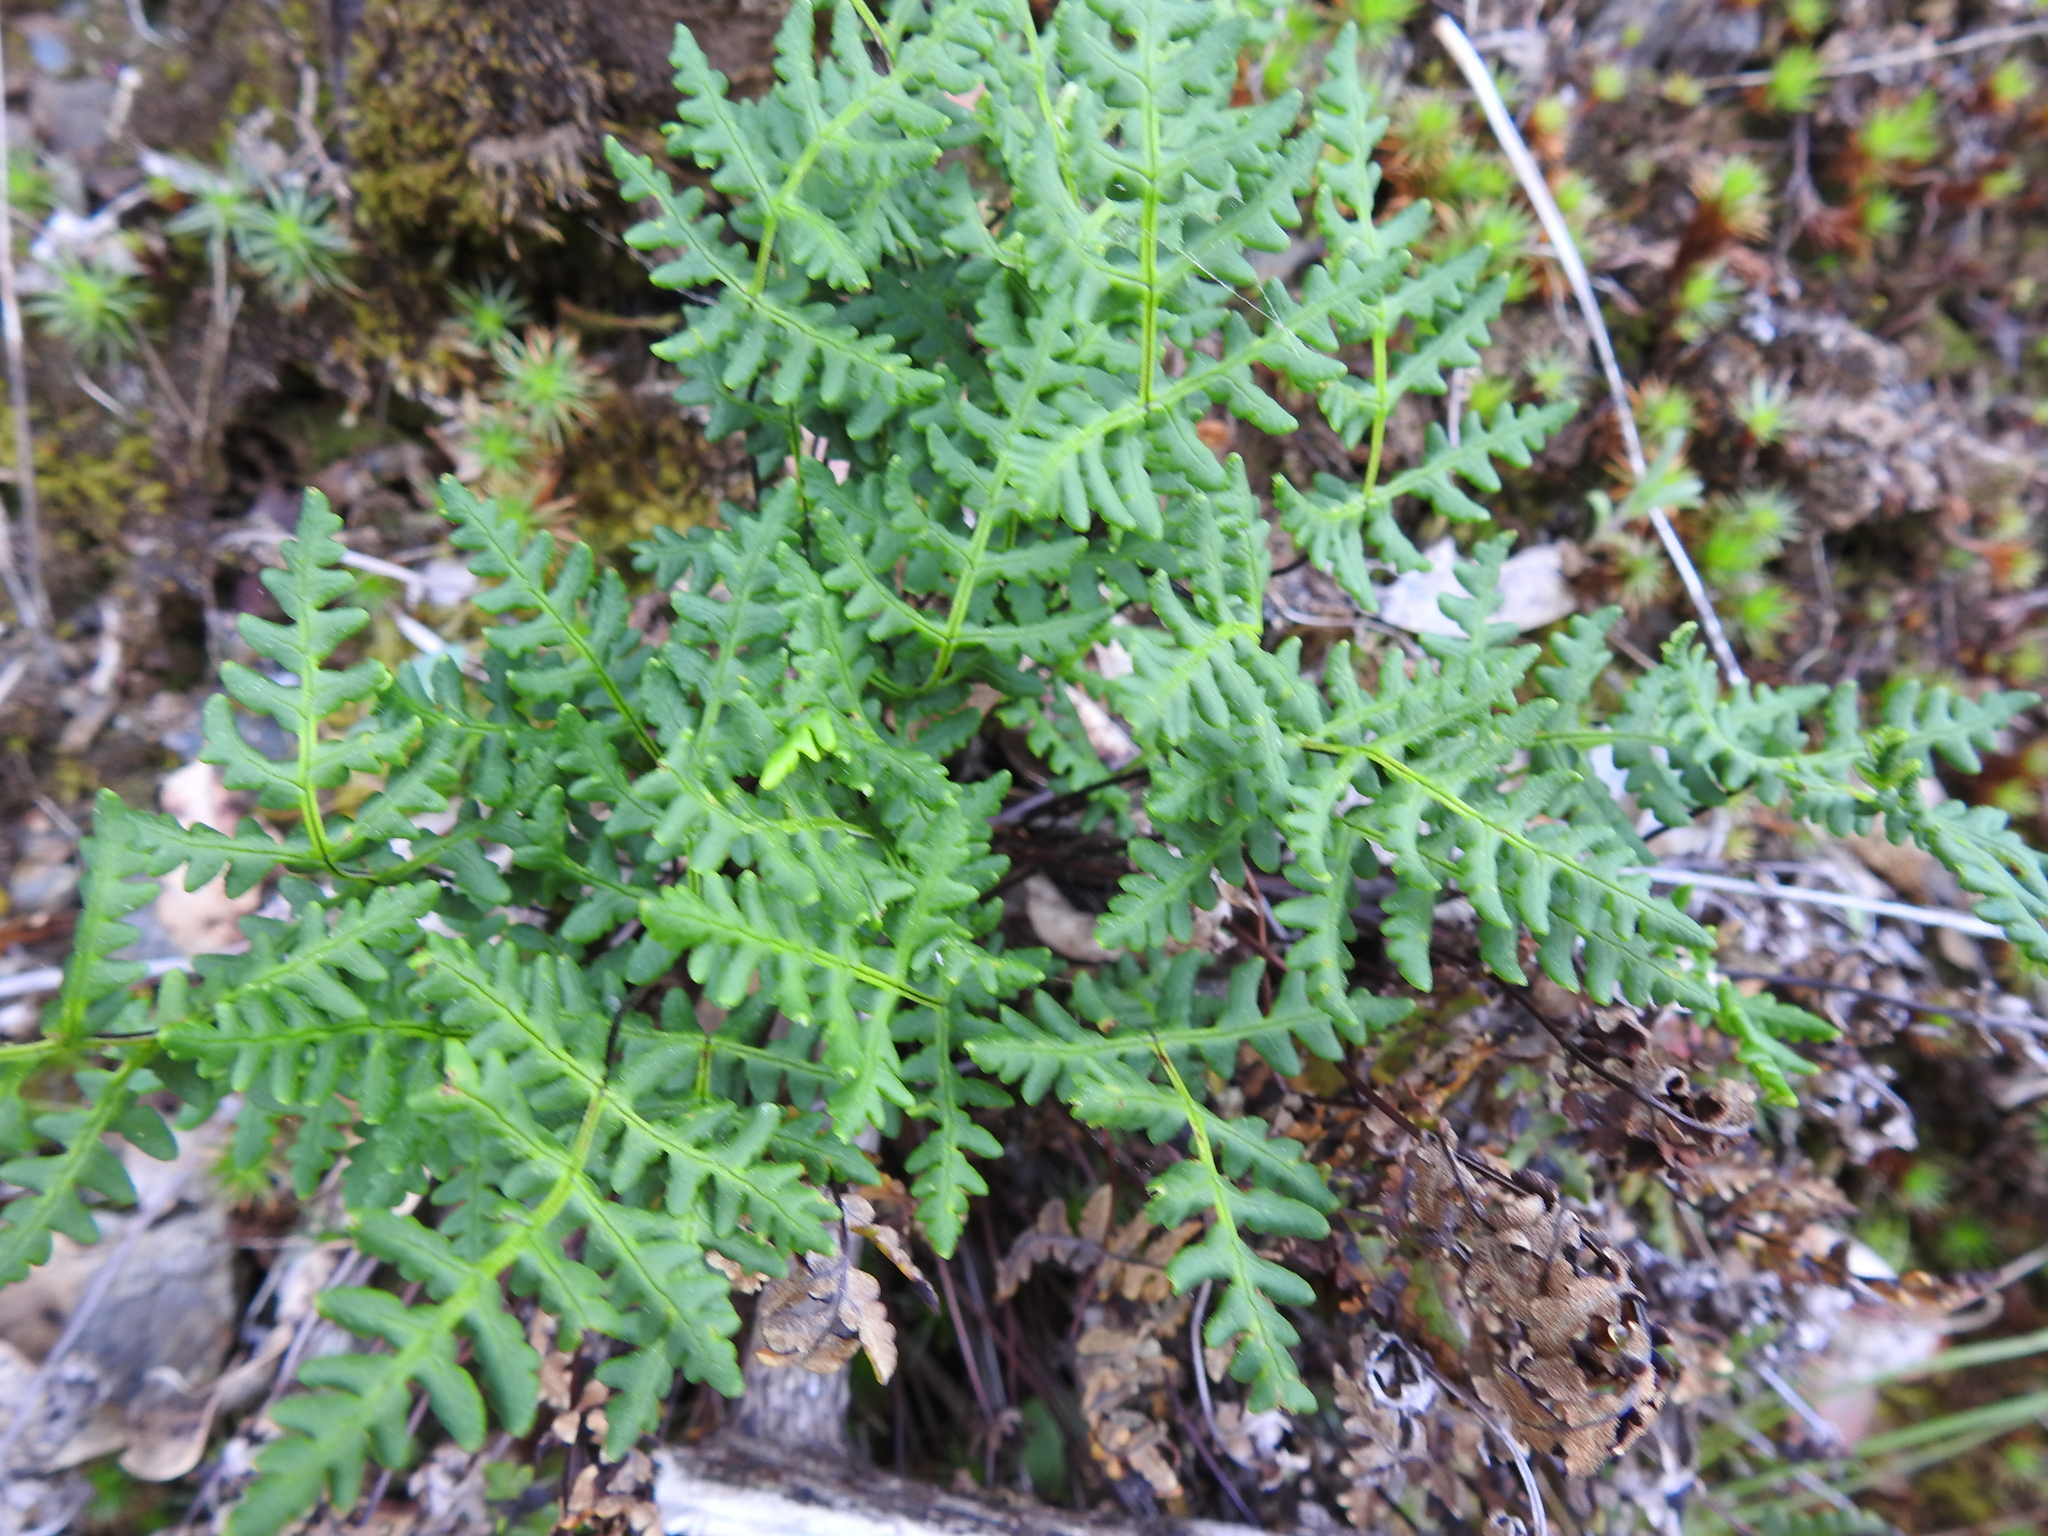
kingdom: Plantae
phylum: Tracheophyta
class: Polypodiopsida
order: Polypodiales
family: Pteridaceae
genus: Pentagramma
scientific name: Pentagramma triangularis
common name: Gold fern
